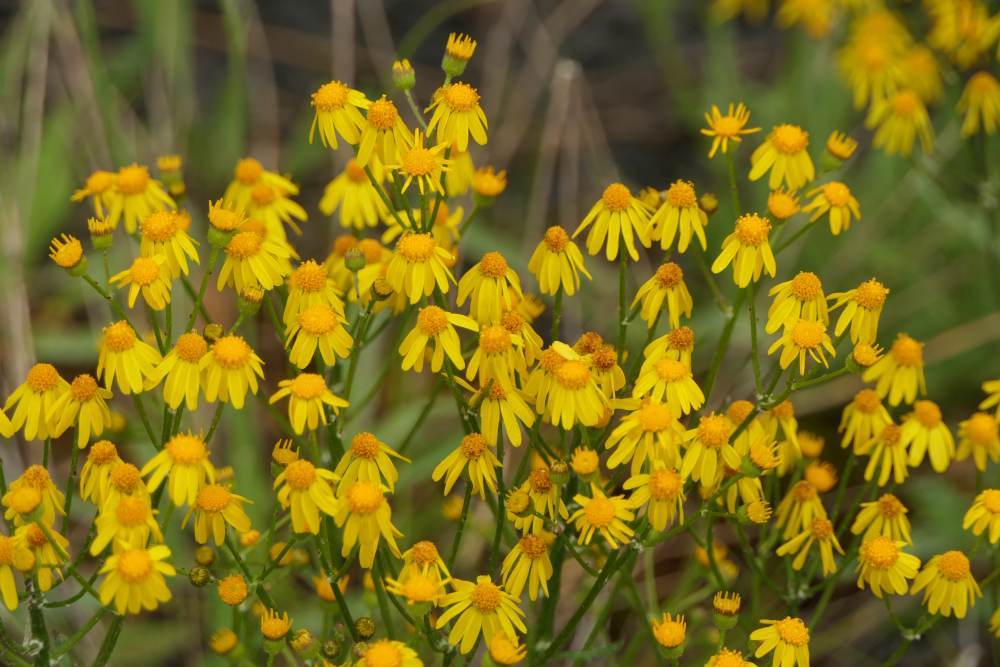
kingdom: Plantae
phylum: Tracheophyta
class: Magnoliopsida
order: Asterales
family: Asteraceae
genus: Packera
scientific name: Packera paupercula
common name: Balsam groundsel
